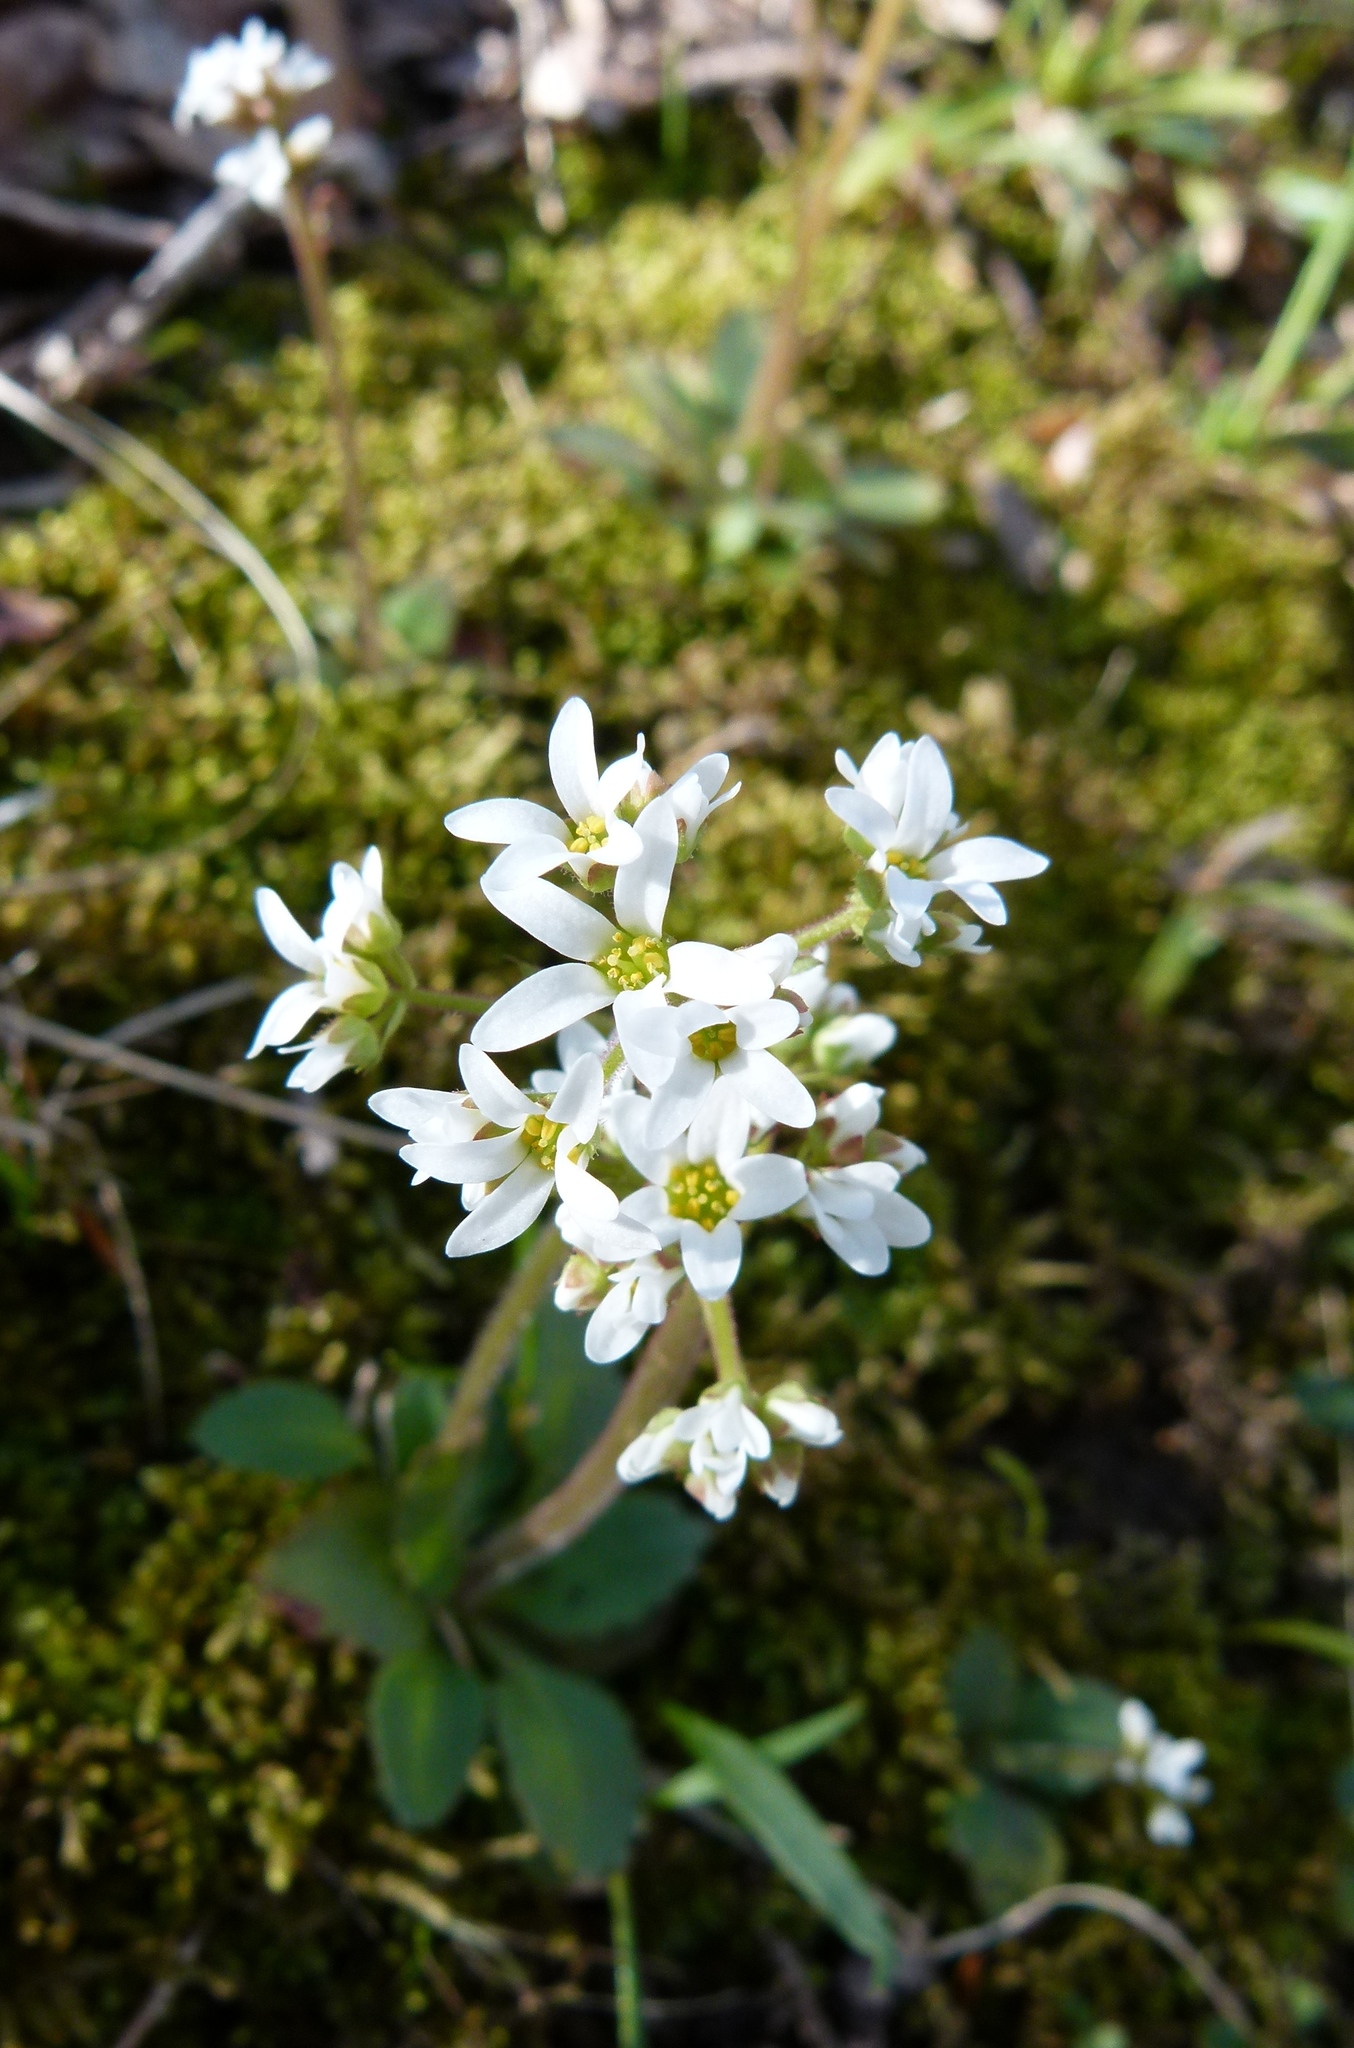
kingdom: Plantae
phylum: Tracheophyta
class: Magnoliopsida
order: Saxifragales
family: Saxifragaceae
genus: Micranthes
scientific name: Micranthes virginiensis
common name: Early saxifrage
